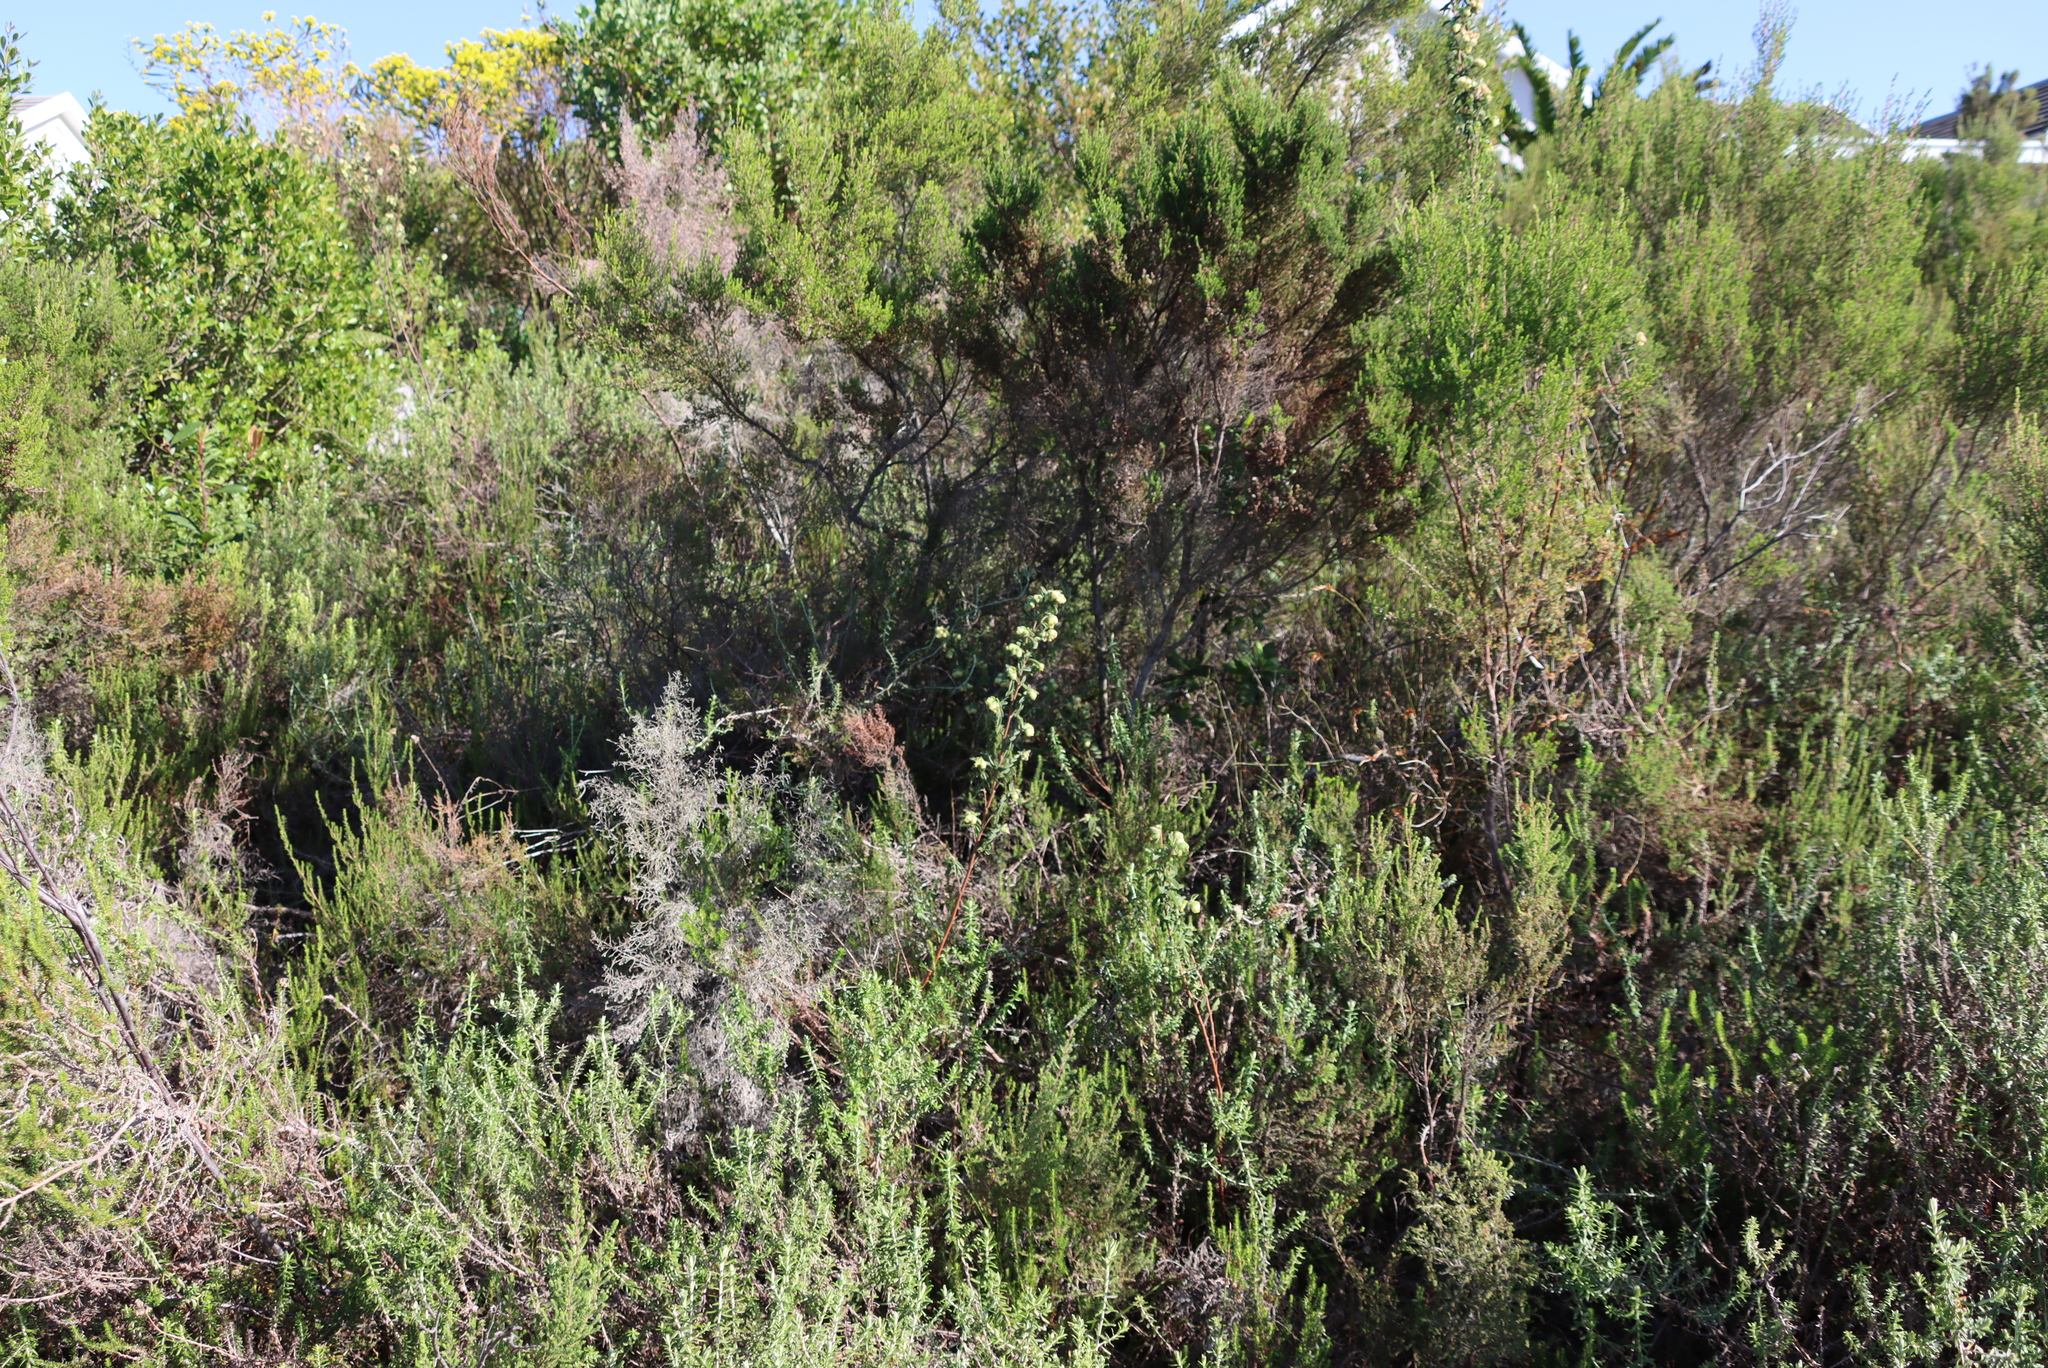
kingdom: Plantae
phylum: Tracheophyta
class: Magnoliopsida
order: Malvales
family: Malvaceae
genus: Hermannia
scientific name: Hermannia hyssopifolia
